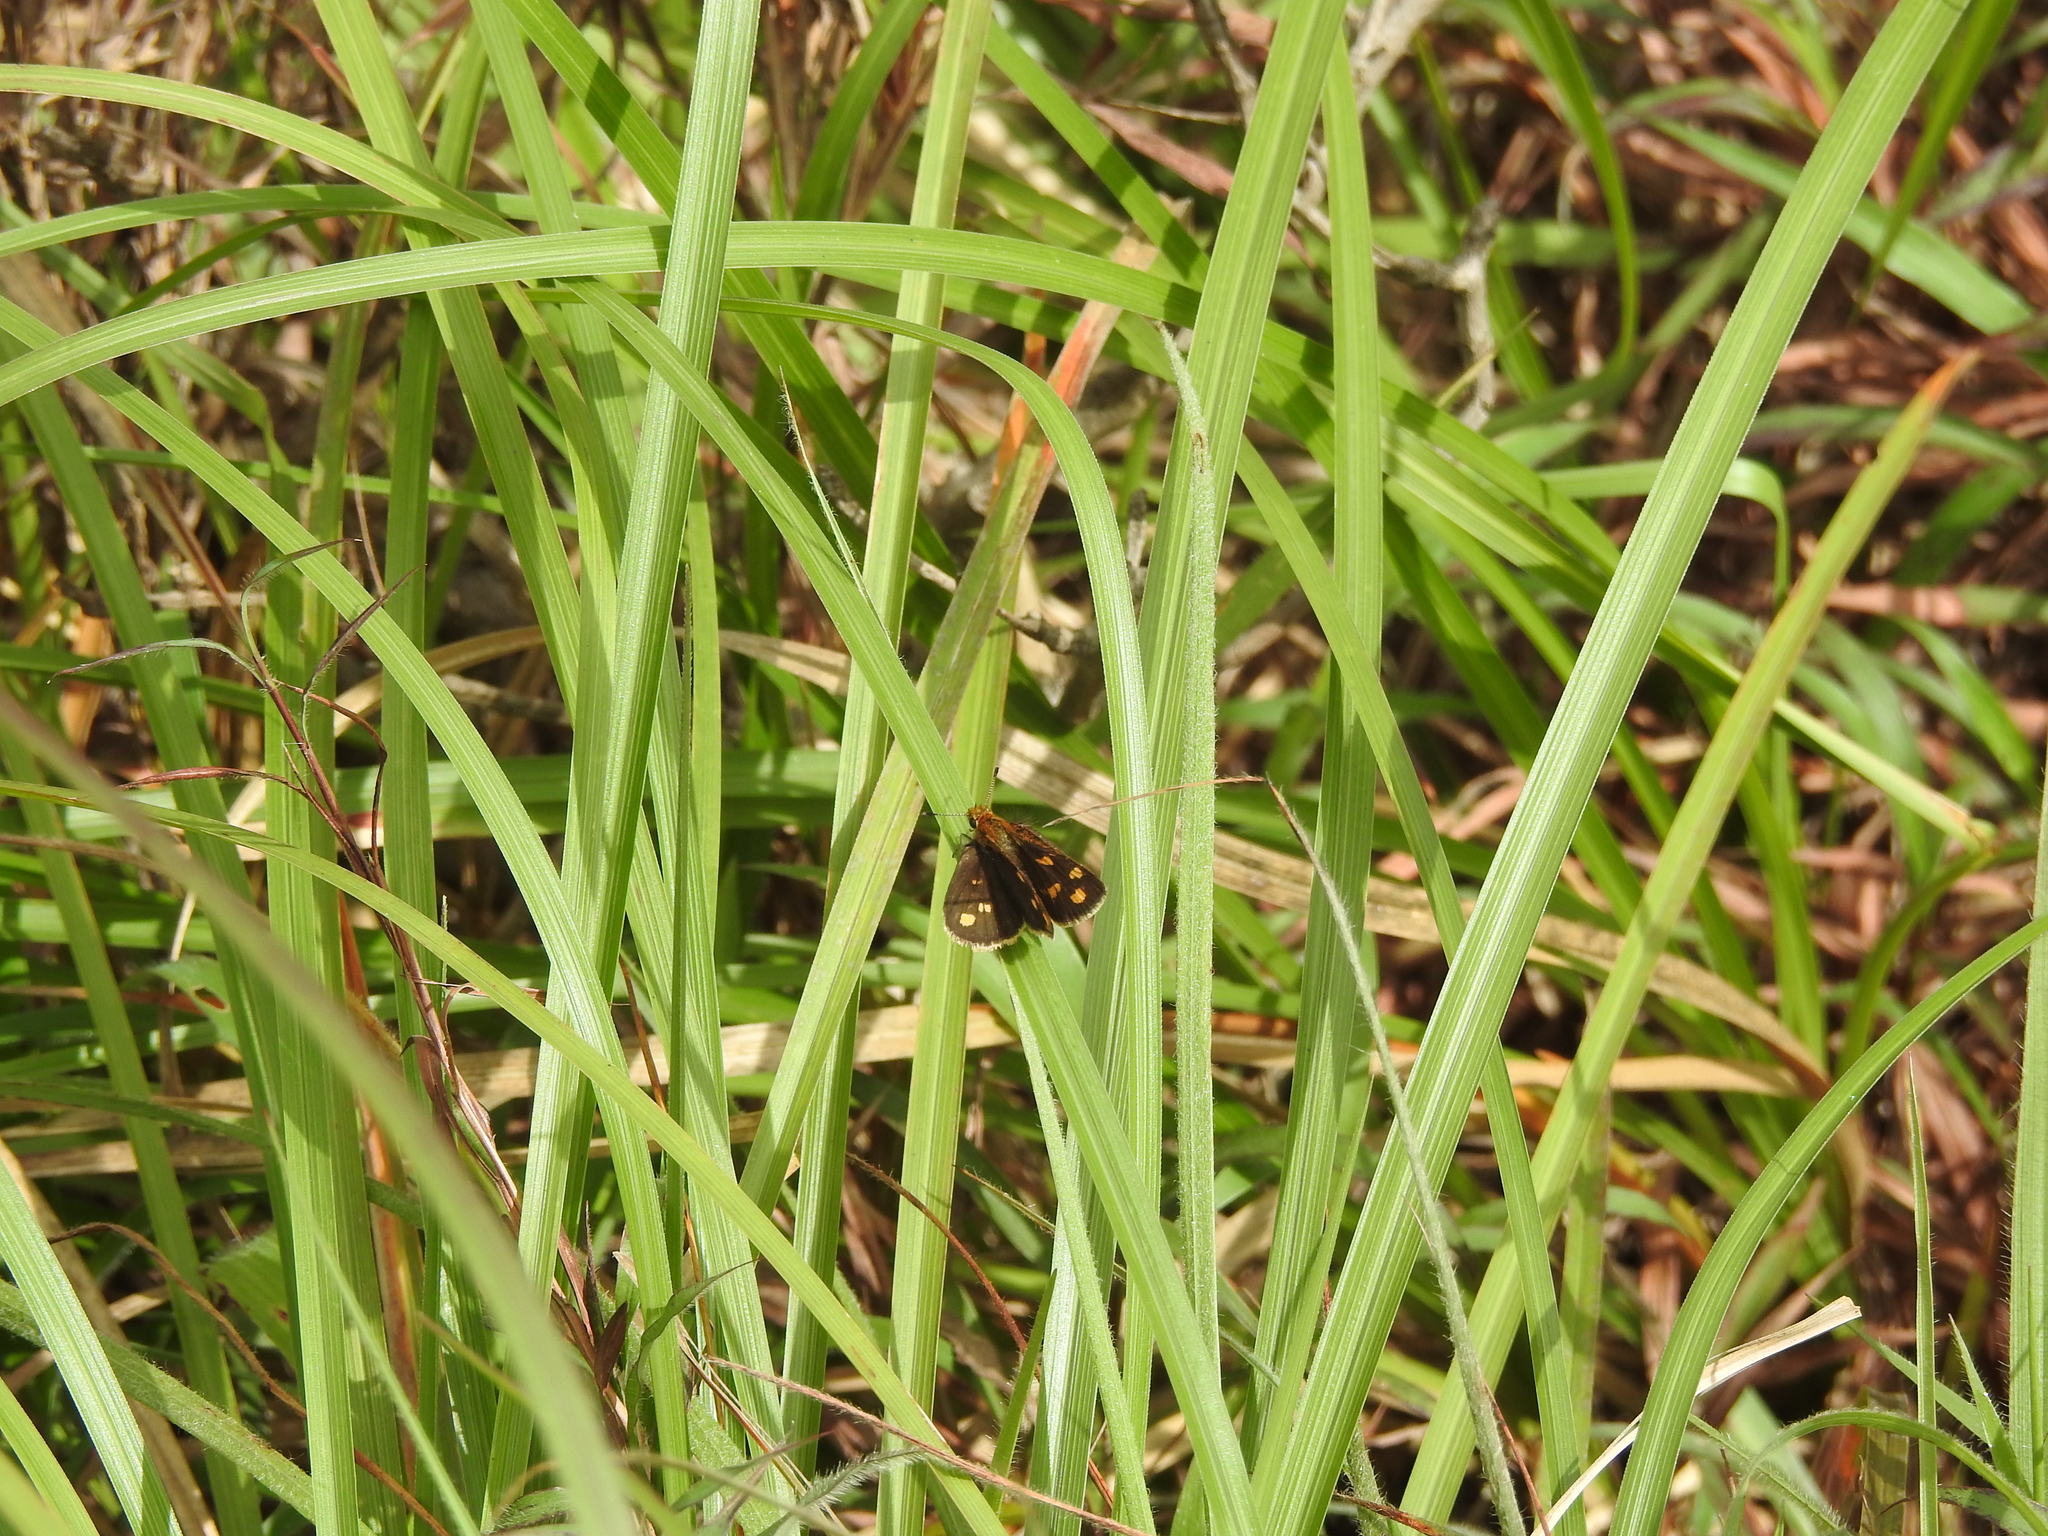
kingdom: Animalia
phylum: Arthropoda
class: Insecta
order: Lepidoptera
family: Hesperiidae
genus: Taractrocera
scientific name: Taractrocera ceramas
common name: Tamil grass dart
